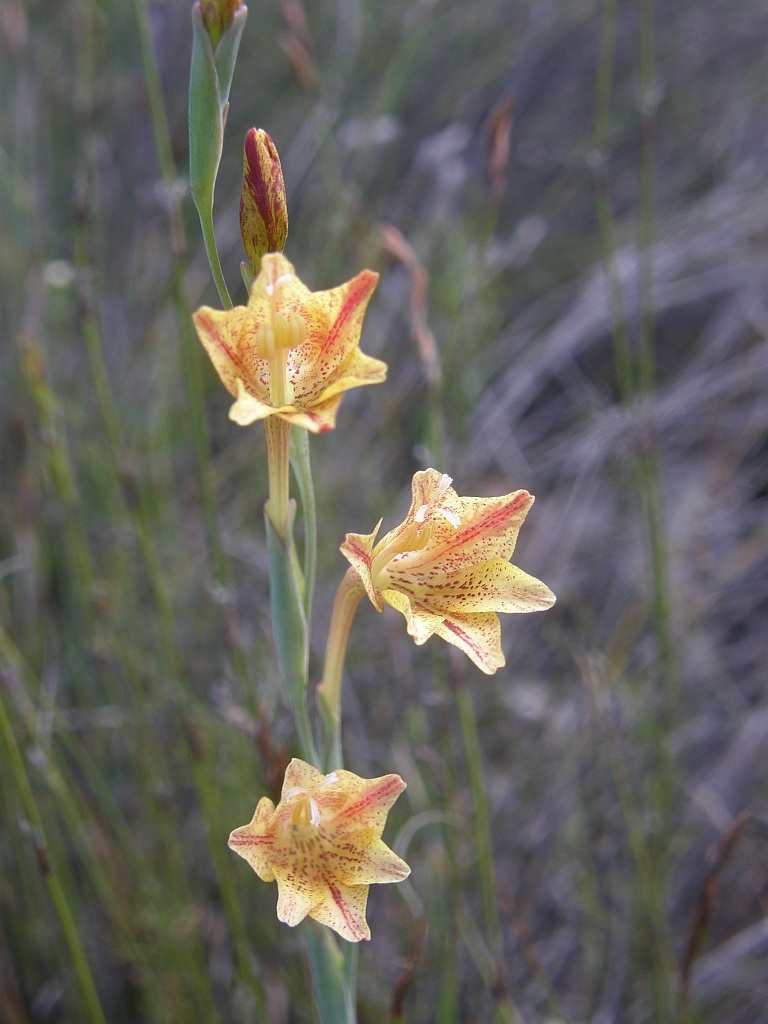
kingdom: Plantae
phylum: Tracheophyta
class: Liliopsida
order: Asparagales
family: Iridaceae
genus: Gladiolus
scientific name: Gladiolus emiliae
